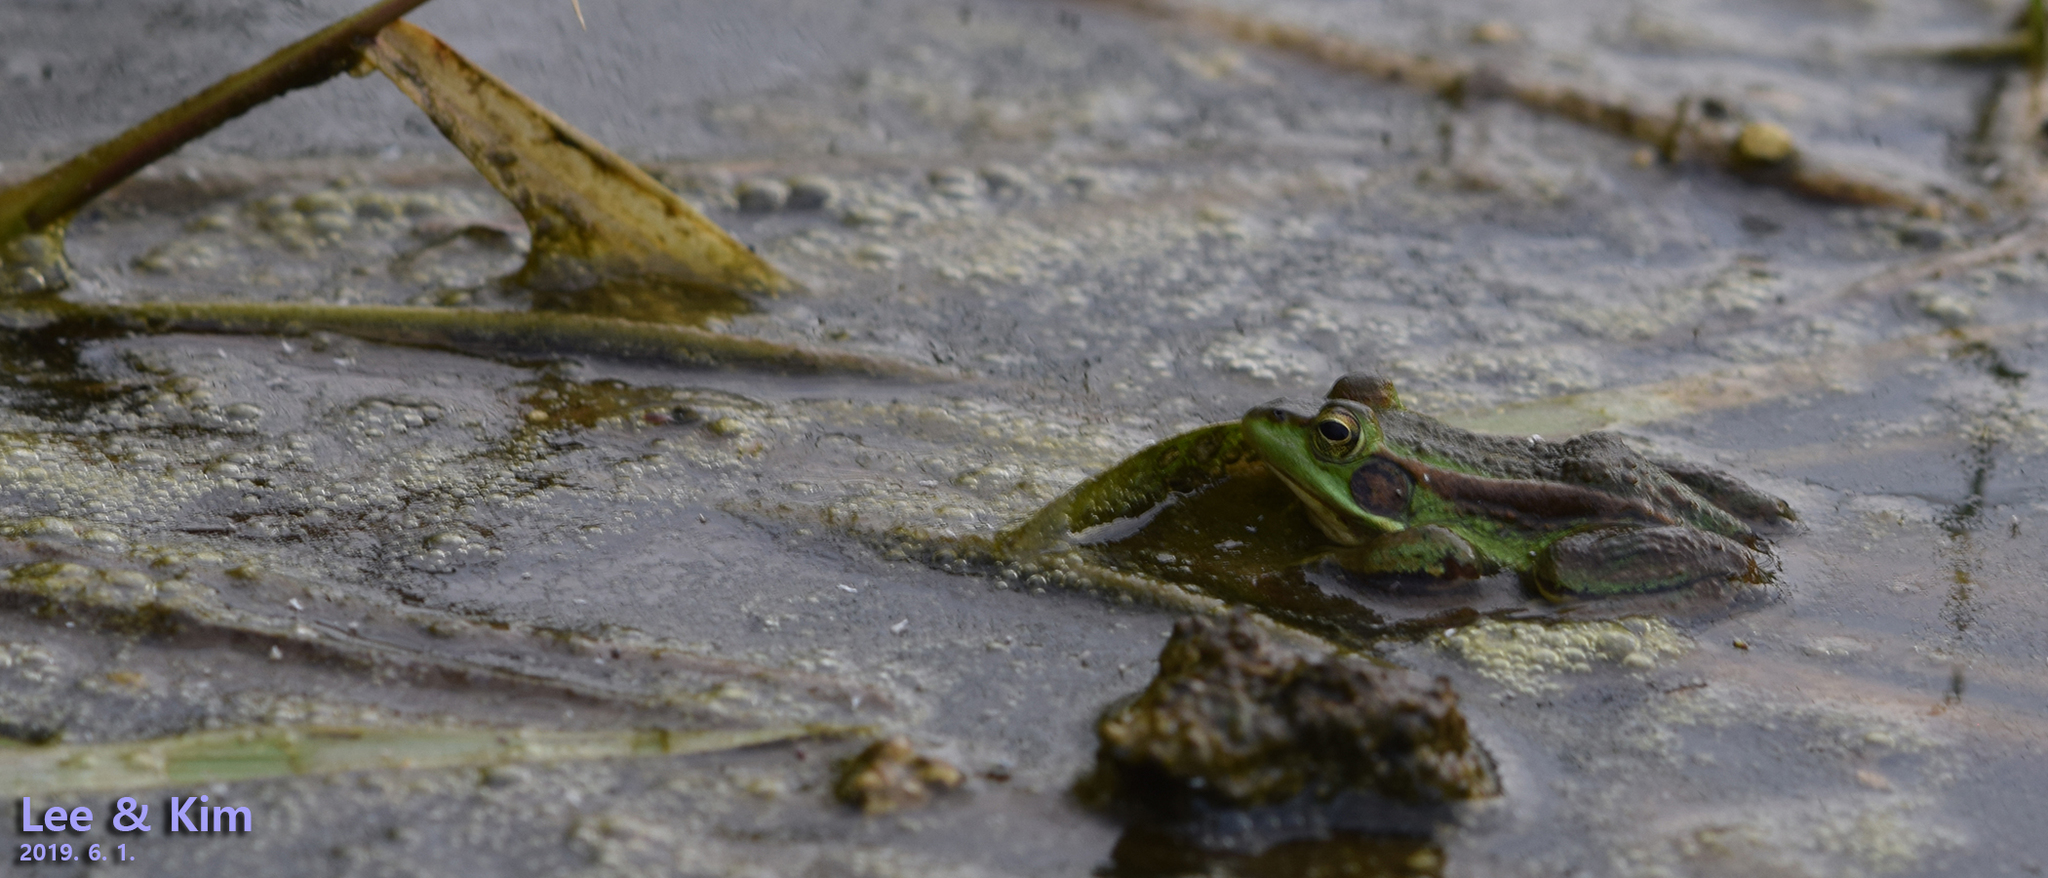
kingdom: Animalia
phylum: Chordata
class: Amphibia
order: Anura
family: Ranidae
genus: Pelophylax
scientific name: Pelophylax chosenicus
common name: Gold-spotted pond frog
